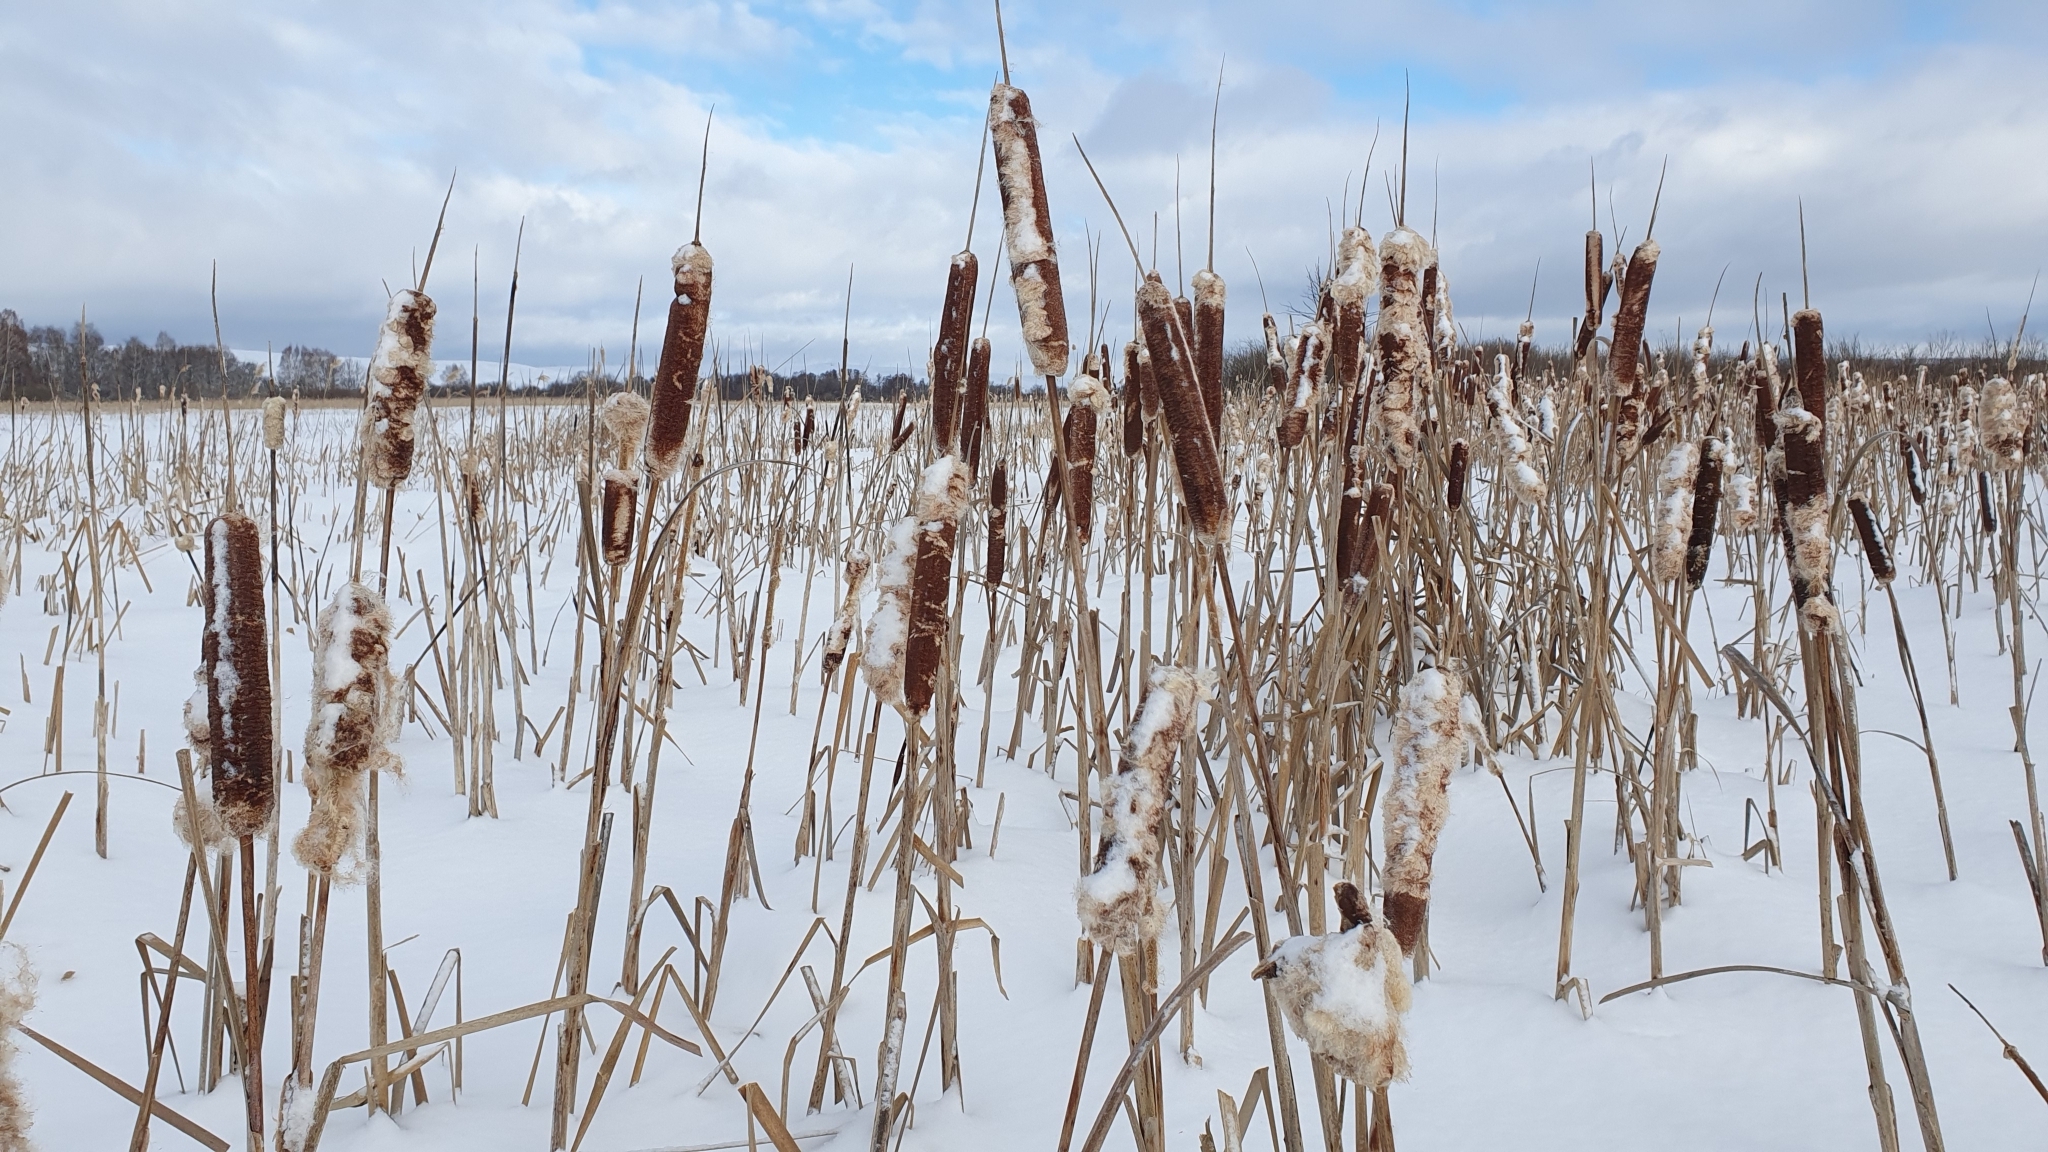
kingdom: Plantae
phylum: Tracheophyta
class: Liliopsida
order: Poales
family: Typhaceae
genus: Typha
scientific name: Typha latifolia
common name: Broadleaf cattail
